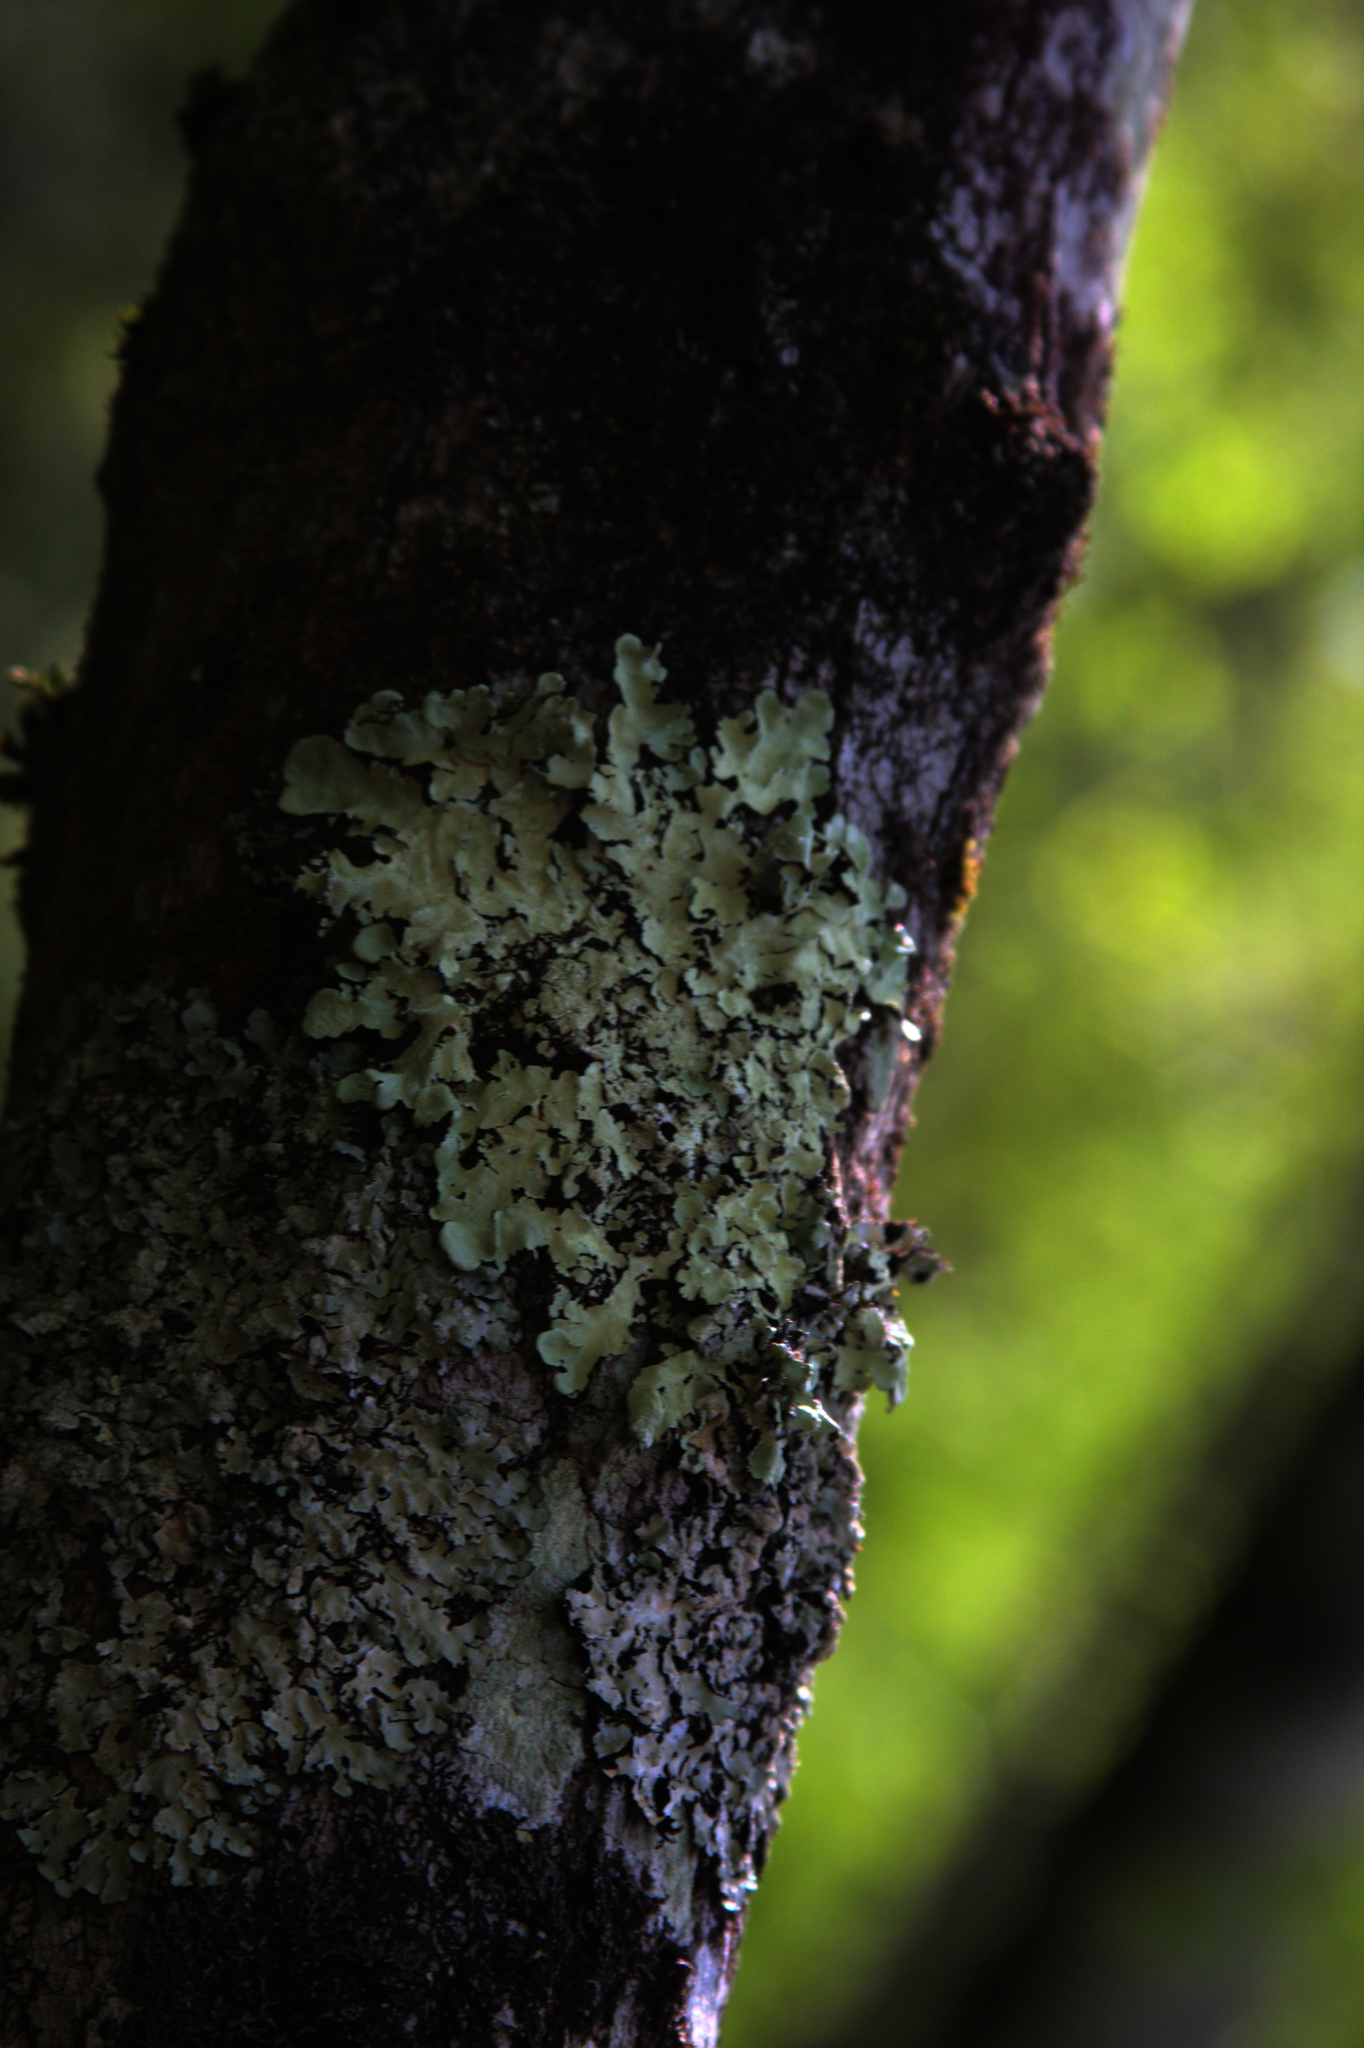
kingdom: Fungi
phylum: Ascomycota
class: Lecanoromycetes
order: Lecanorales
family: Parmeliaceae
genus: Flavoparmelia
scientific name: Flavoparmelia caperata
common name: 40-mile per hour lichen
